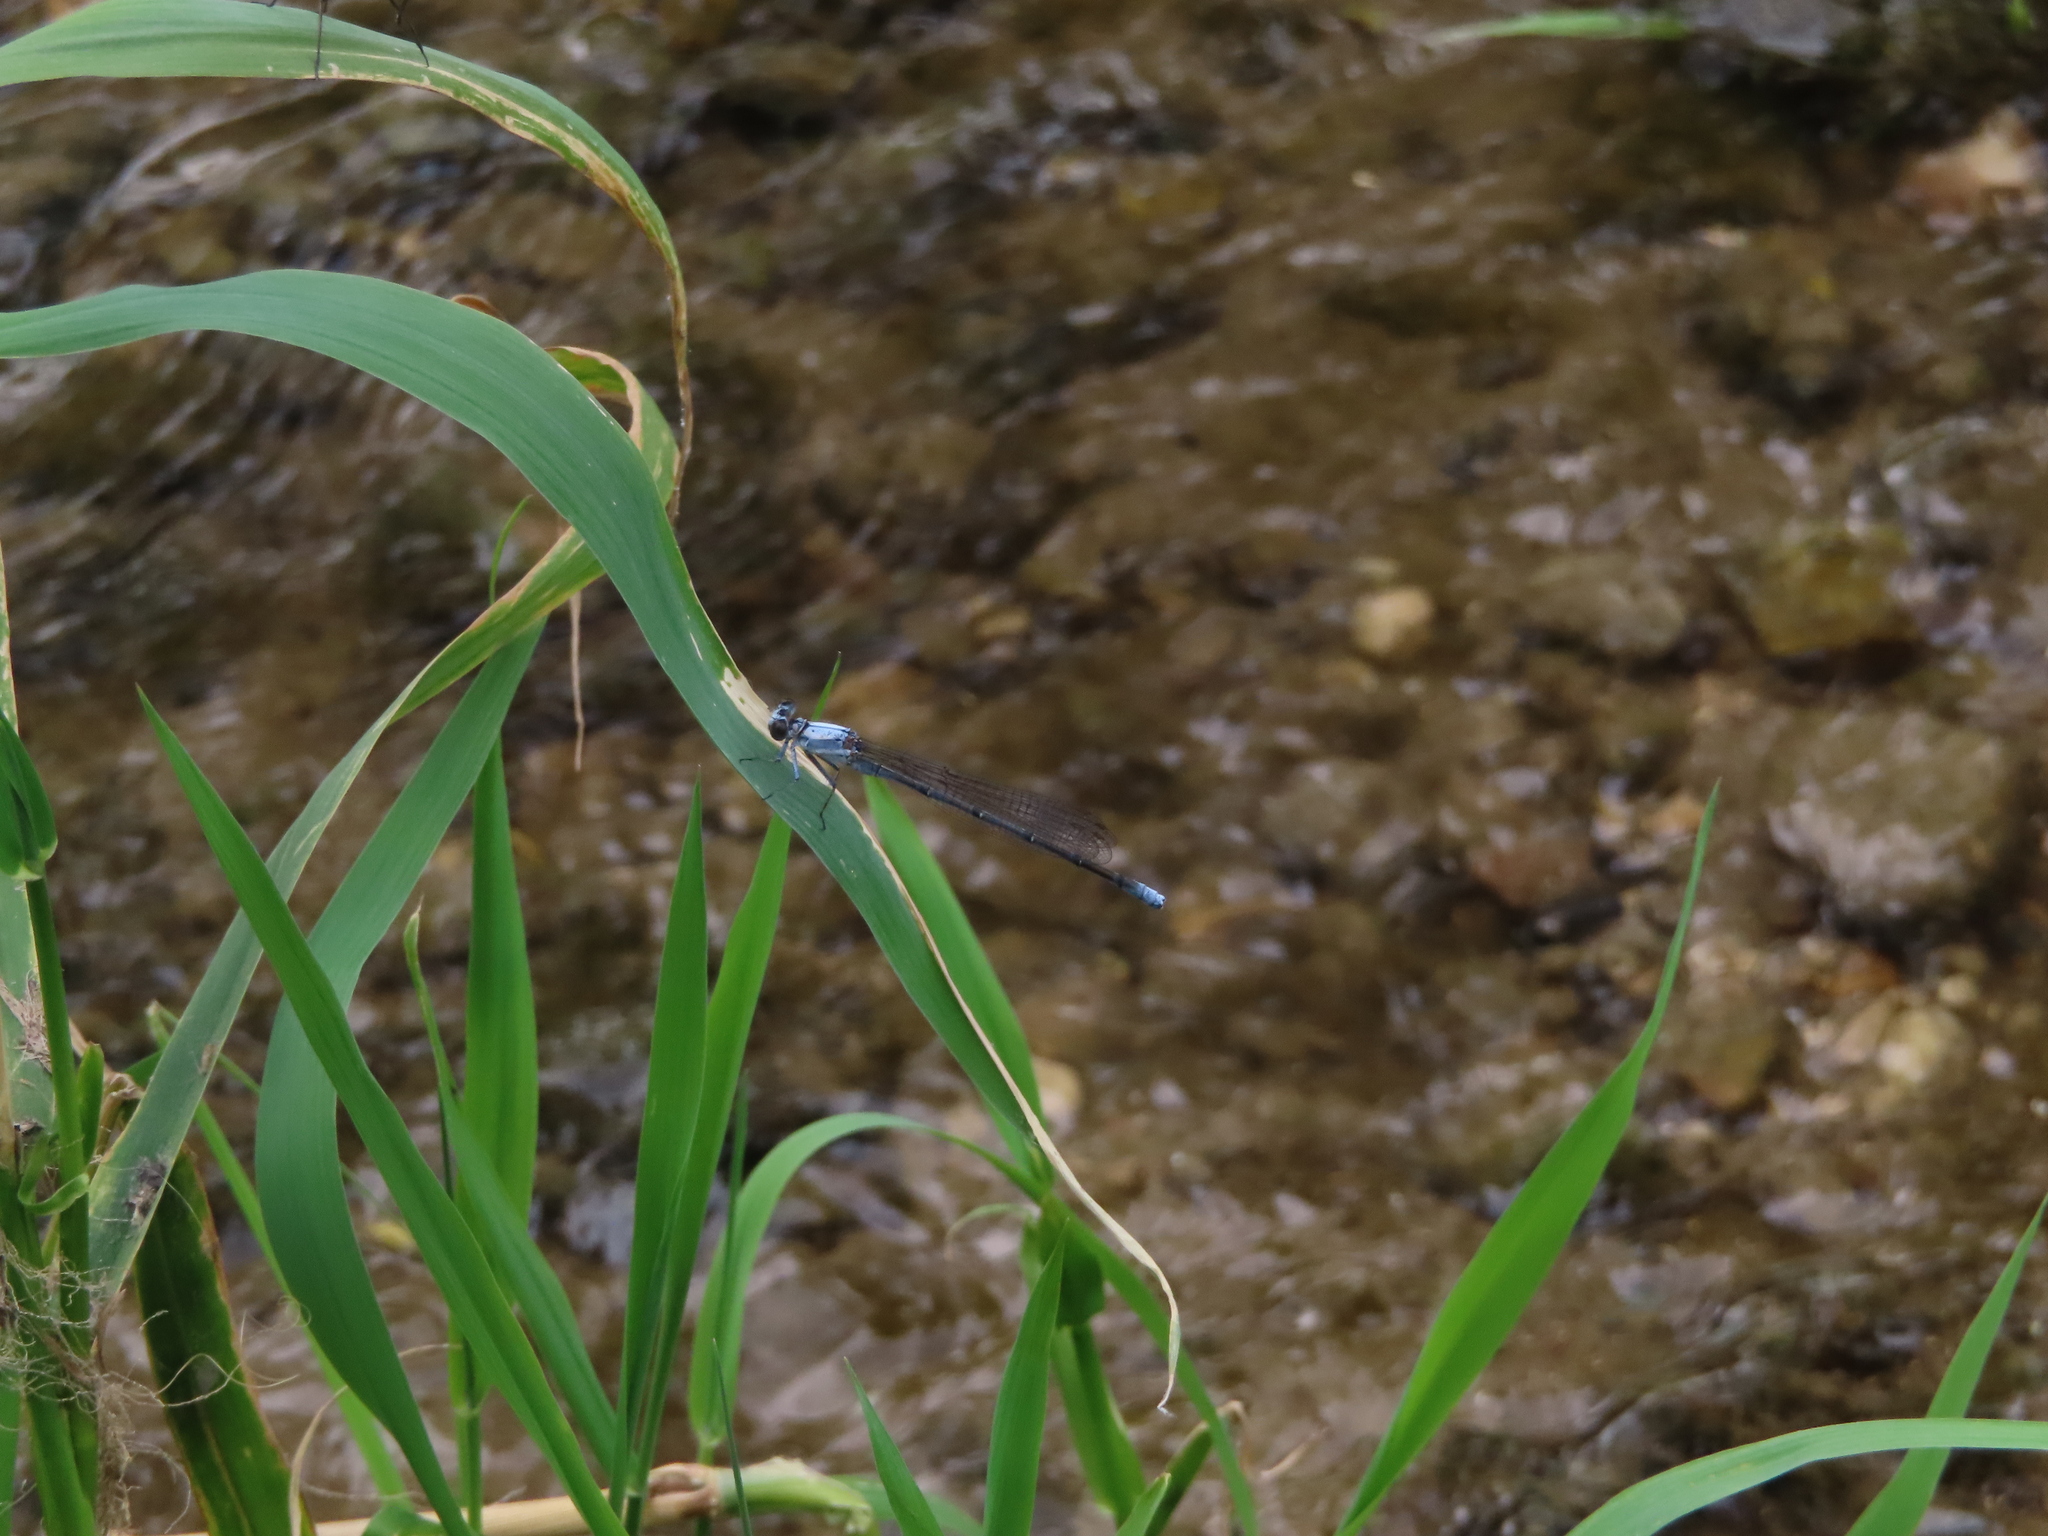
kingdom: Animalia
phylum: Arthropoda
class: Insecta
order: Odonata
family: Coenagrionidae
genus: Argia
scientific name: Argia moesta
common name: Powdered dancer
